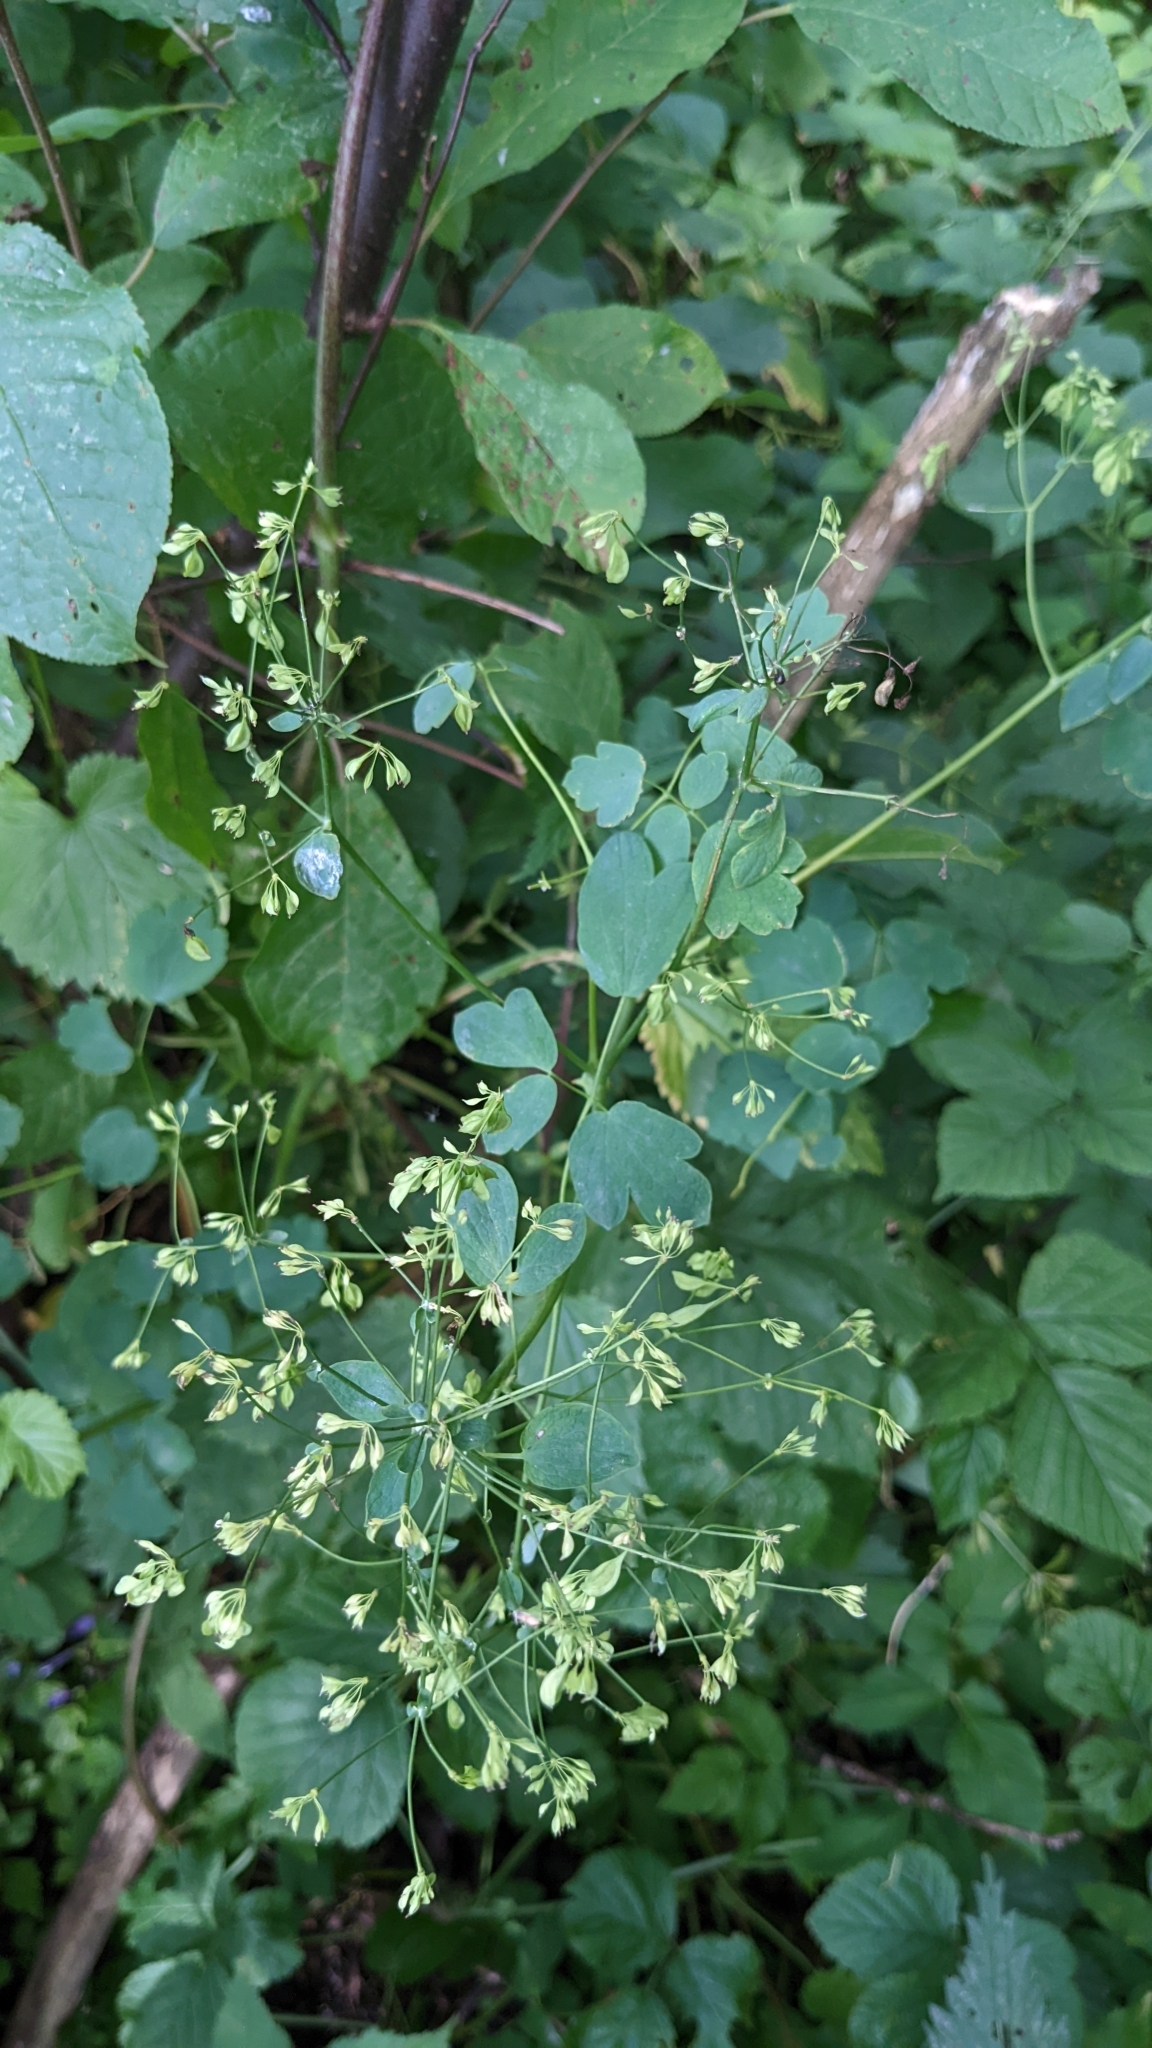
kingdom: Plantae
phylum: Tracheophyta
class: Magnoliopsida
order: Ranunculales
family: Ranunculaceae
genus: Thalictrum
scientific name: Thalictrum aquilegiifolium
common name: French meadow-rue
